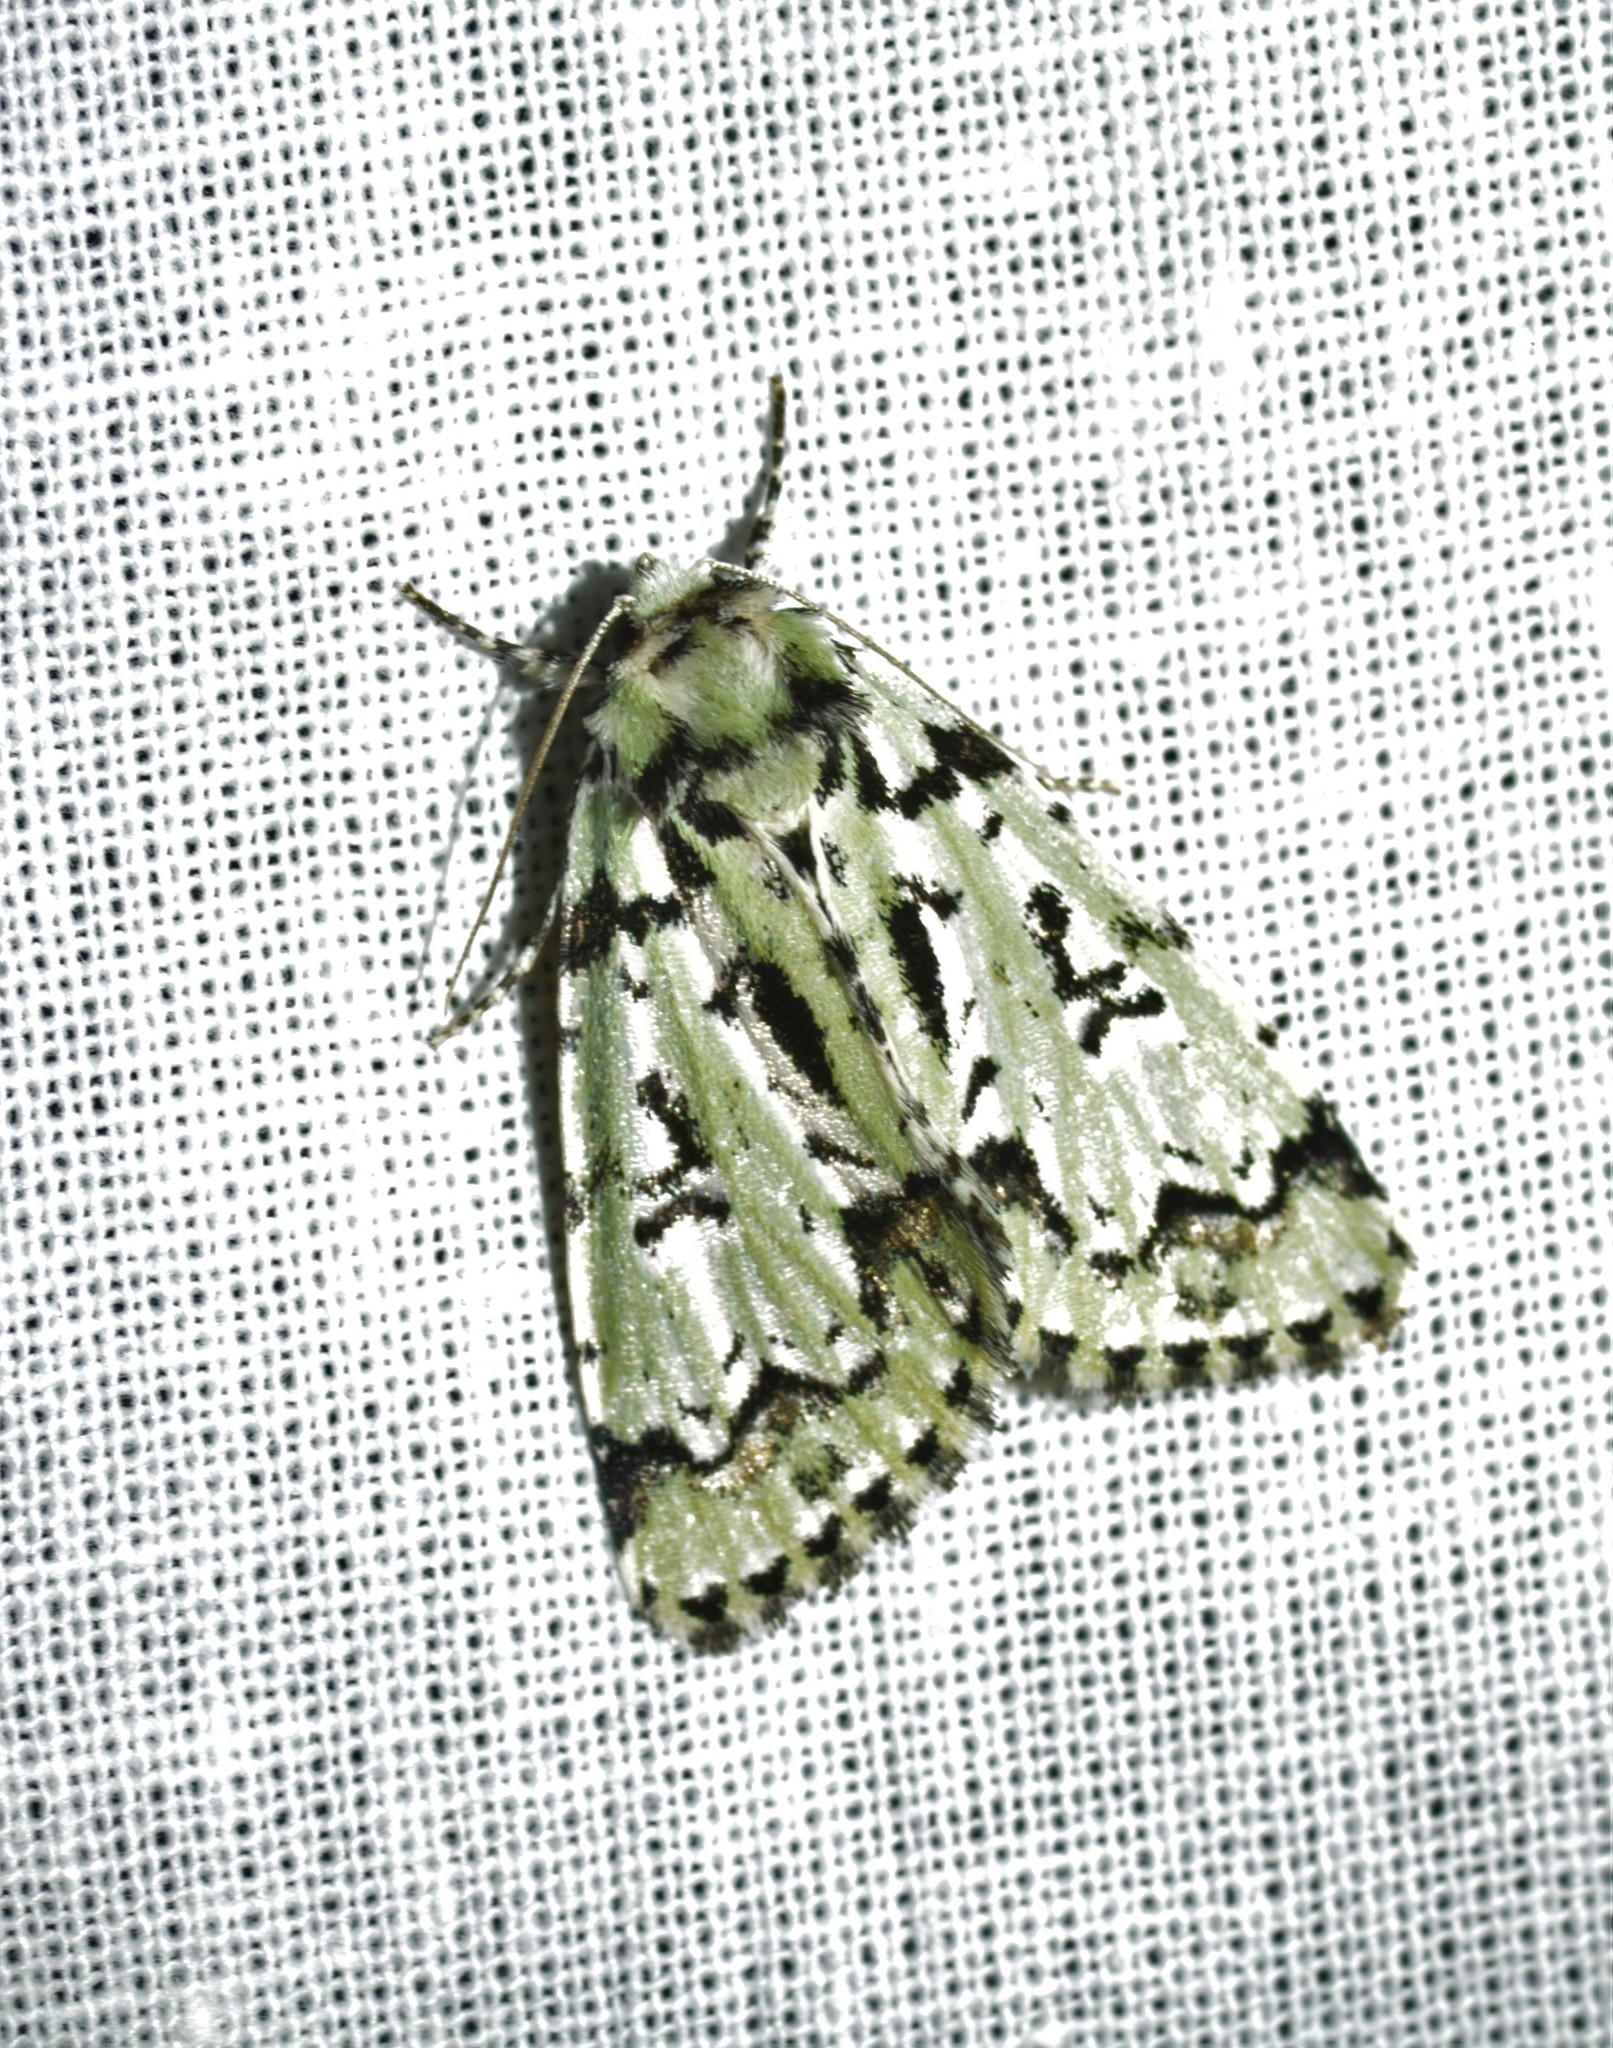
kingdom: Animalia
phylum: Arthropoda
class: Insecta
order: Lepidoptera
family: Noctuidae
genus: Moma
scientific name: Moma alpium
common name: Scarce merveille du jour
